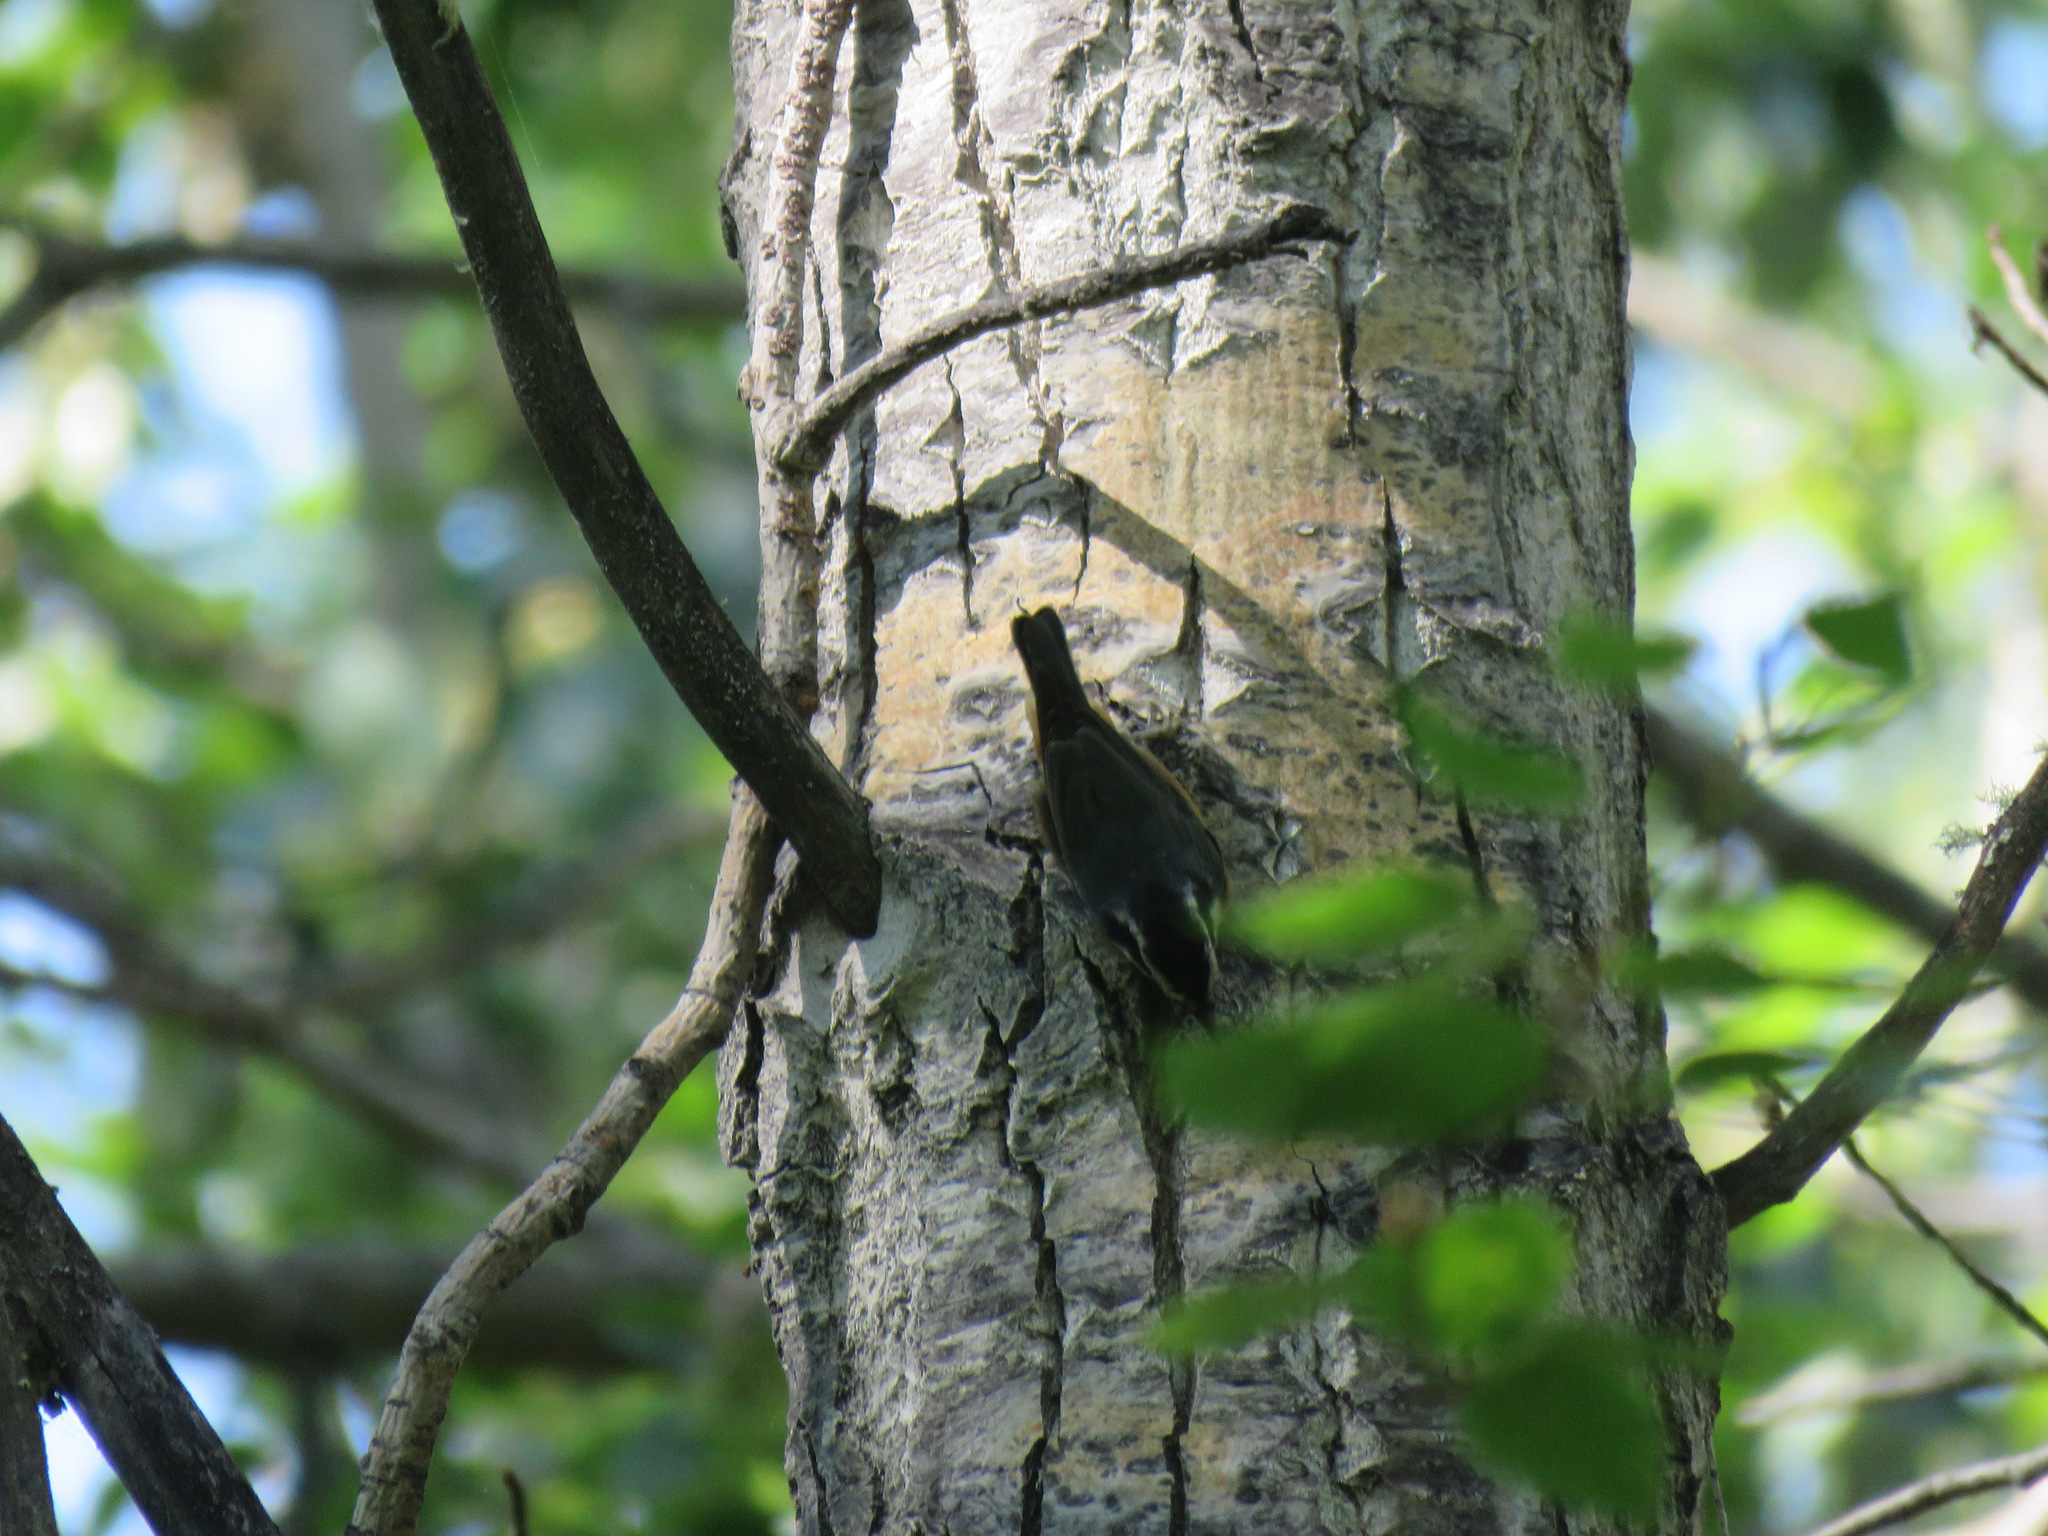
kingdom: Animalia
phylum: Chordata
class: Aves
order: Passeriformes
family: Sittidae
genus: Sitta
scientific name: Sitta canadensis
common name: Red-breasted nuthatch
